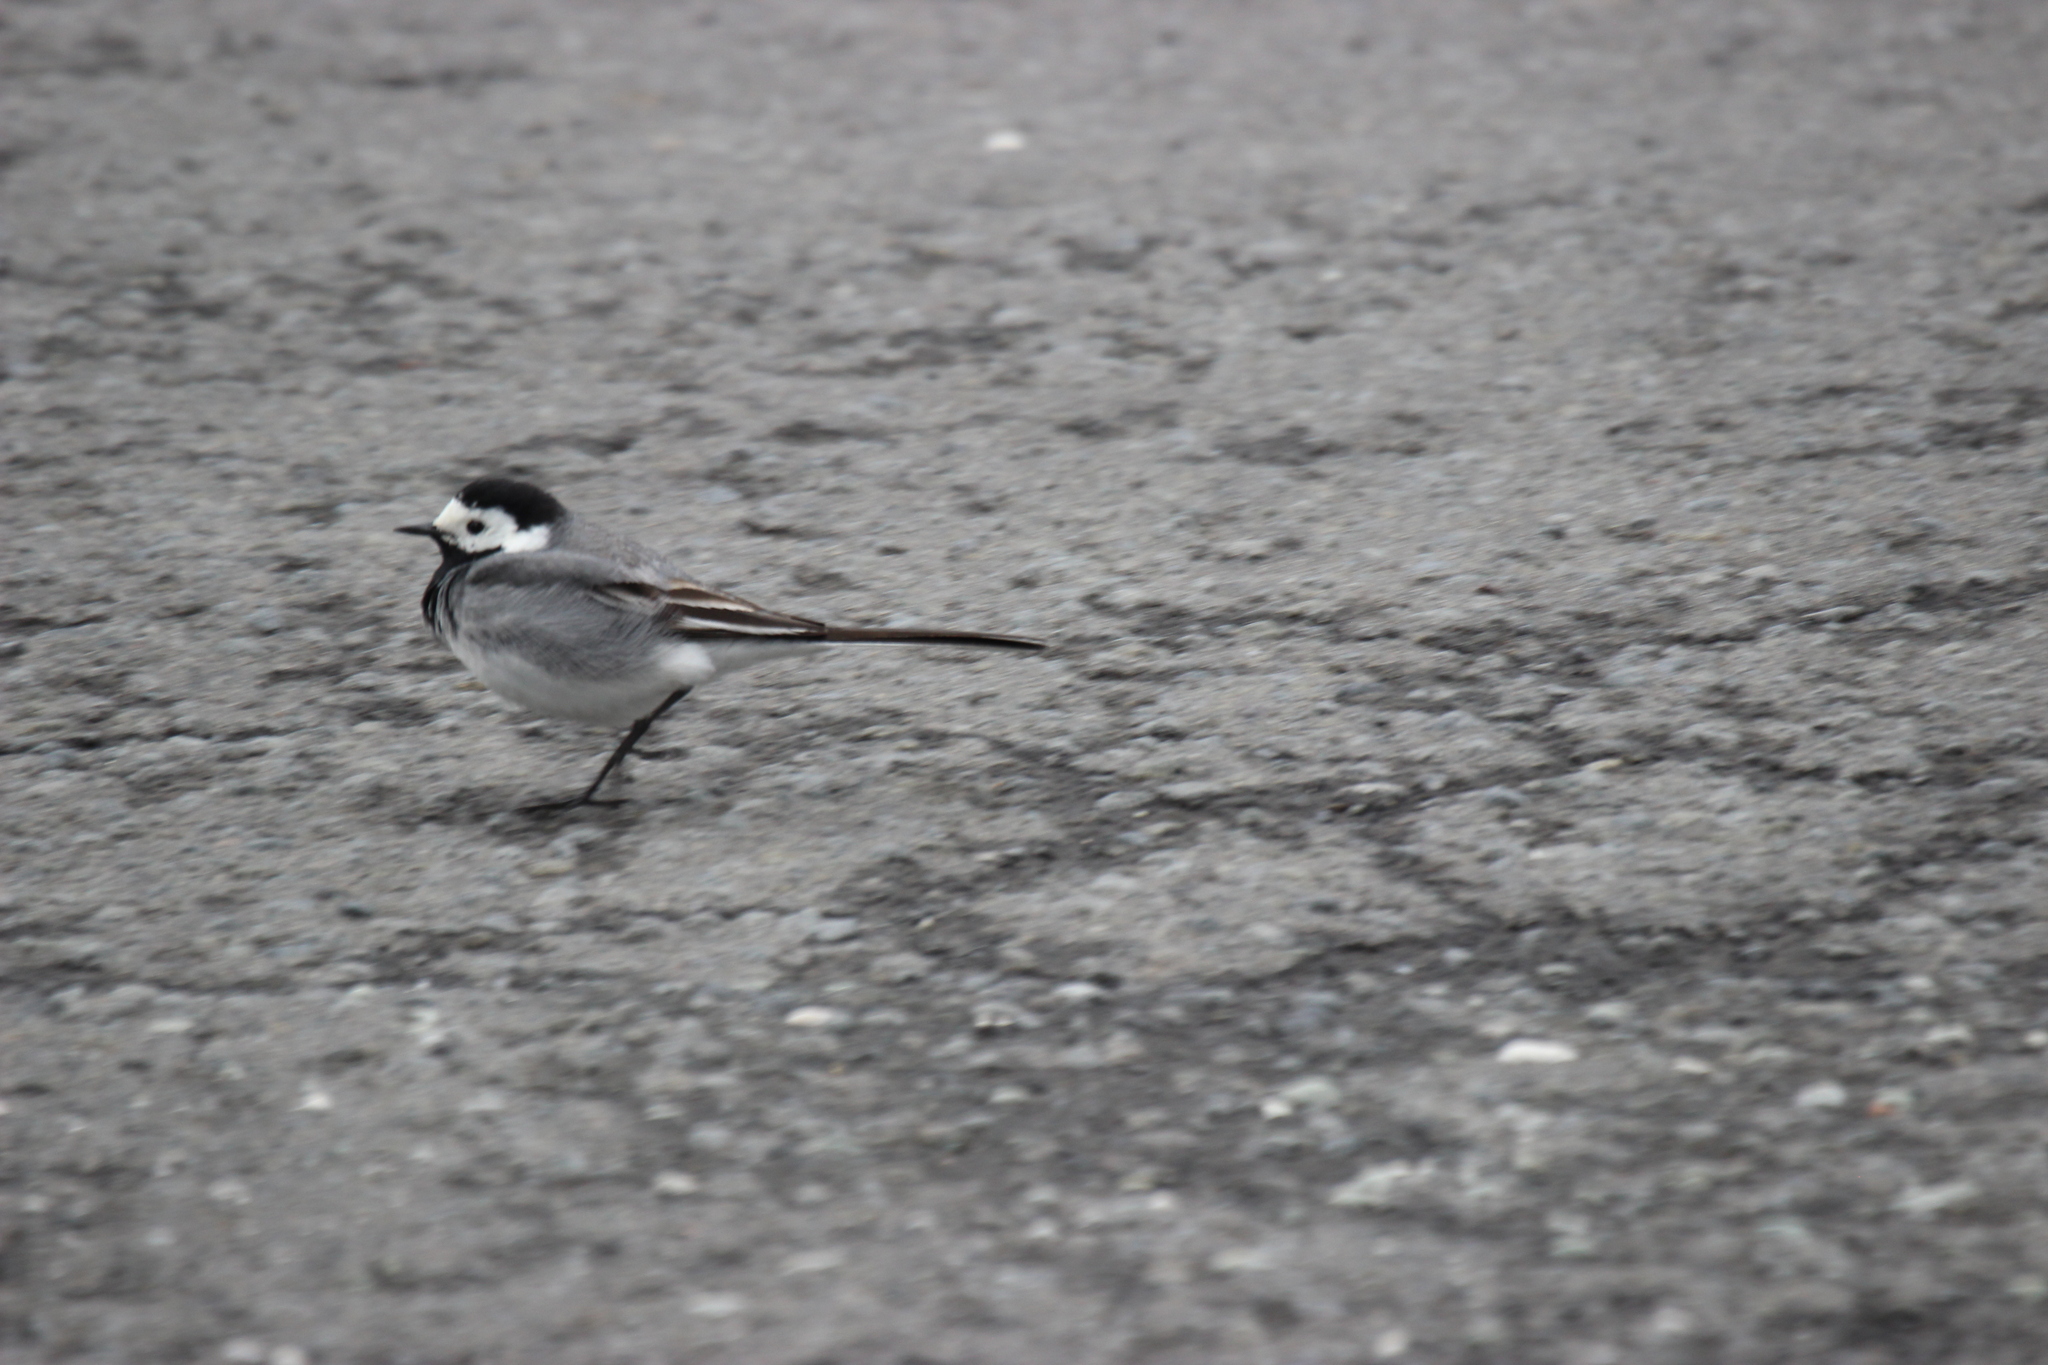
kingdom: Animalia
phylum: Chordata
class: Aves
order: Passeriformes
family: Motacillidae
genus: Motacilla
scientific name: Motacilla alba
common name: White wagtail
